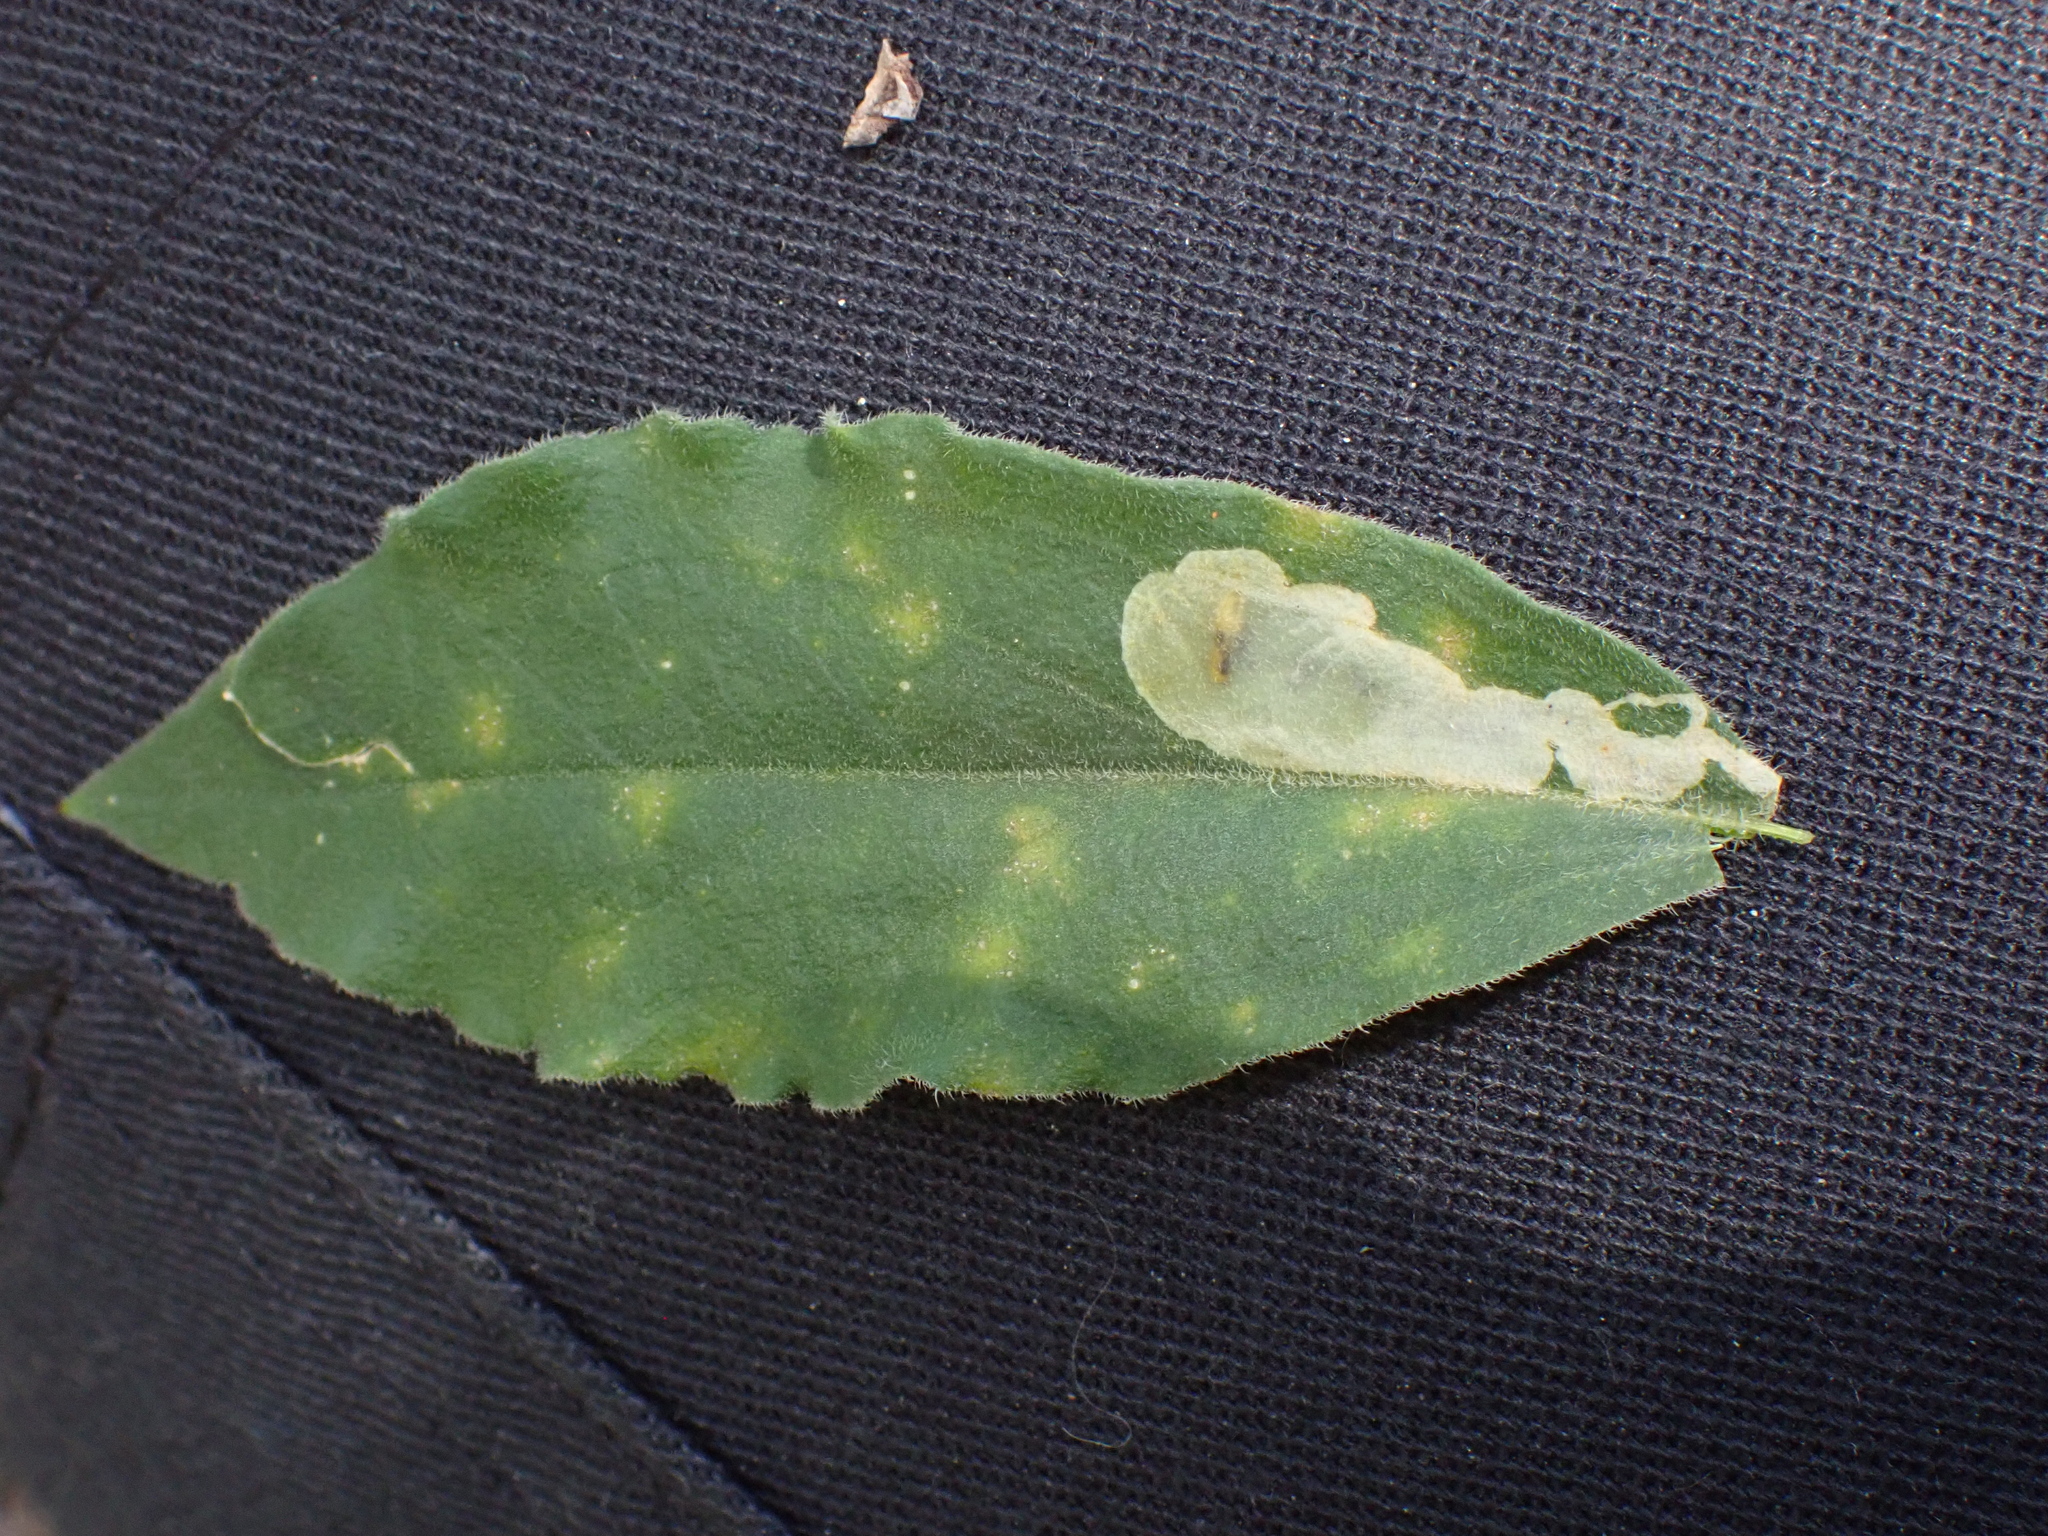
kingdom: Animalia
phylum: Arthropoda
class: Insecta
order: Diptera
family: Agromyzidae
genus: Amauromyza
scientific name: Amauromyza flavifrons
